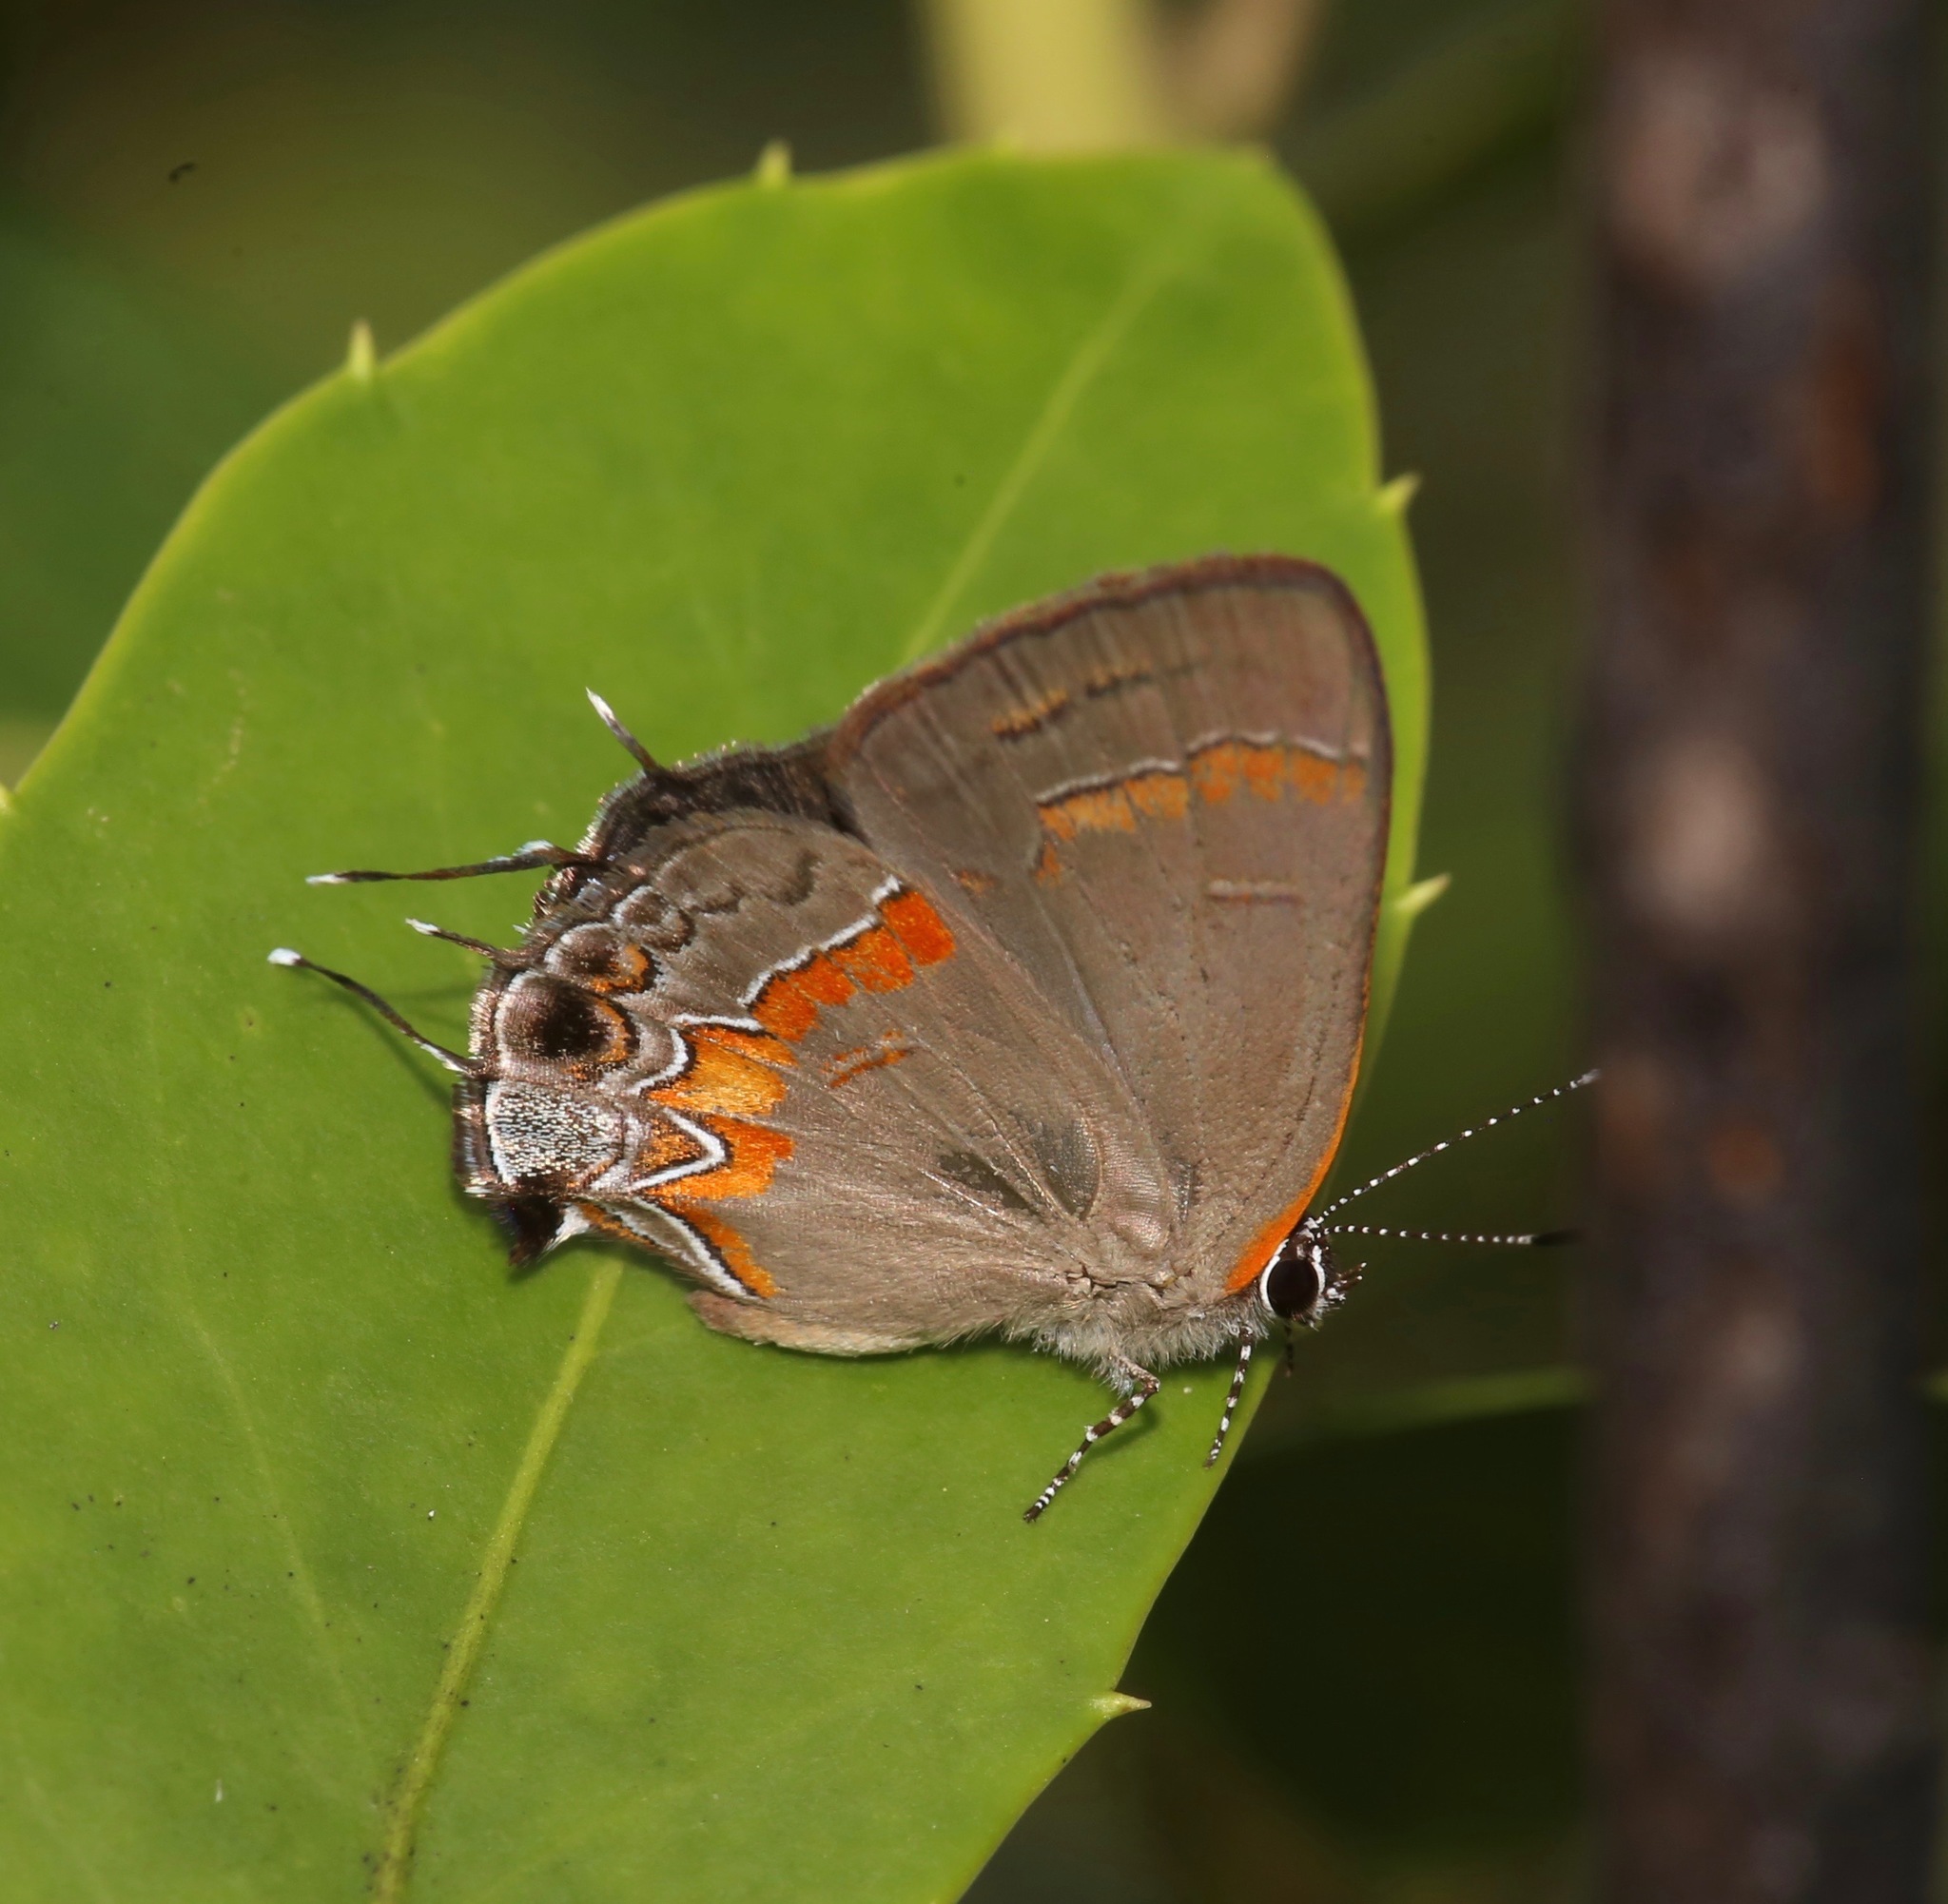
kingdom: Animalia
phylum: Arthropoda
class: Insecta
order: Lepidoptera
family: Lycaenidae
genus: Calycopis
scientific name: Calycopis cecrops
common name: Red-banded hairstreak
